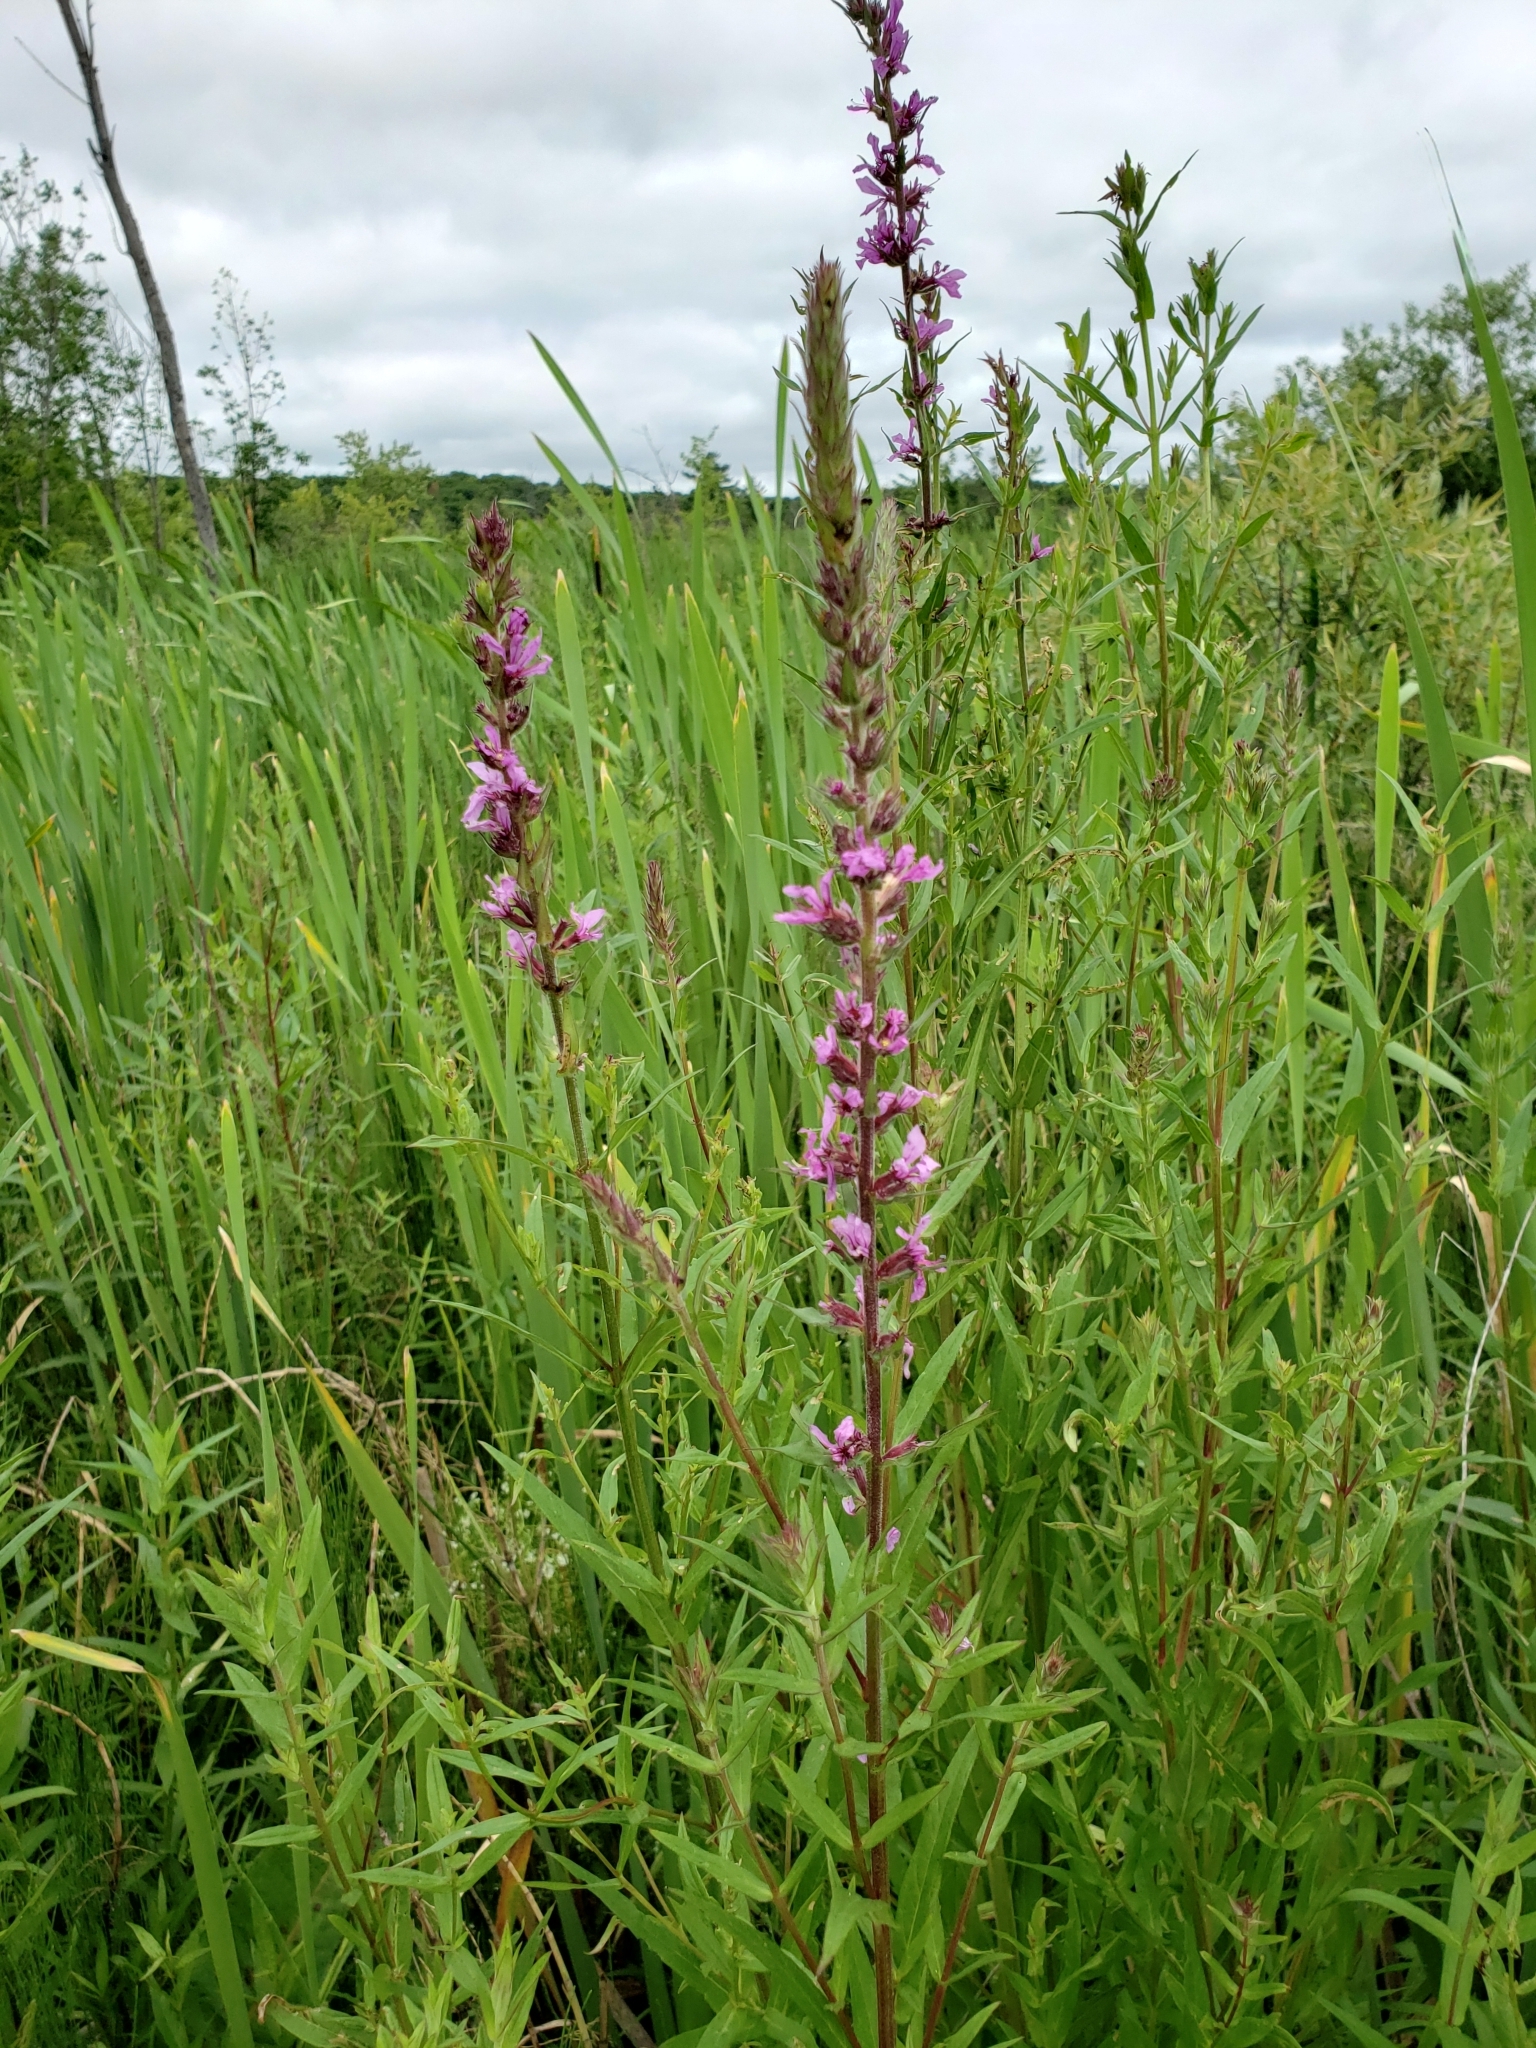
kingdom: Plantae
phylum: Tracheophyta
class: Magnoliopsida
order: Myrtales
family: Lythraceae
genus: Lythrum
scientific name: Lythrum salicaria
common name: Purple loosestrife
